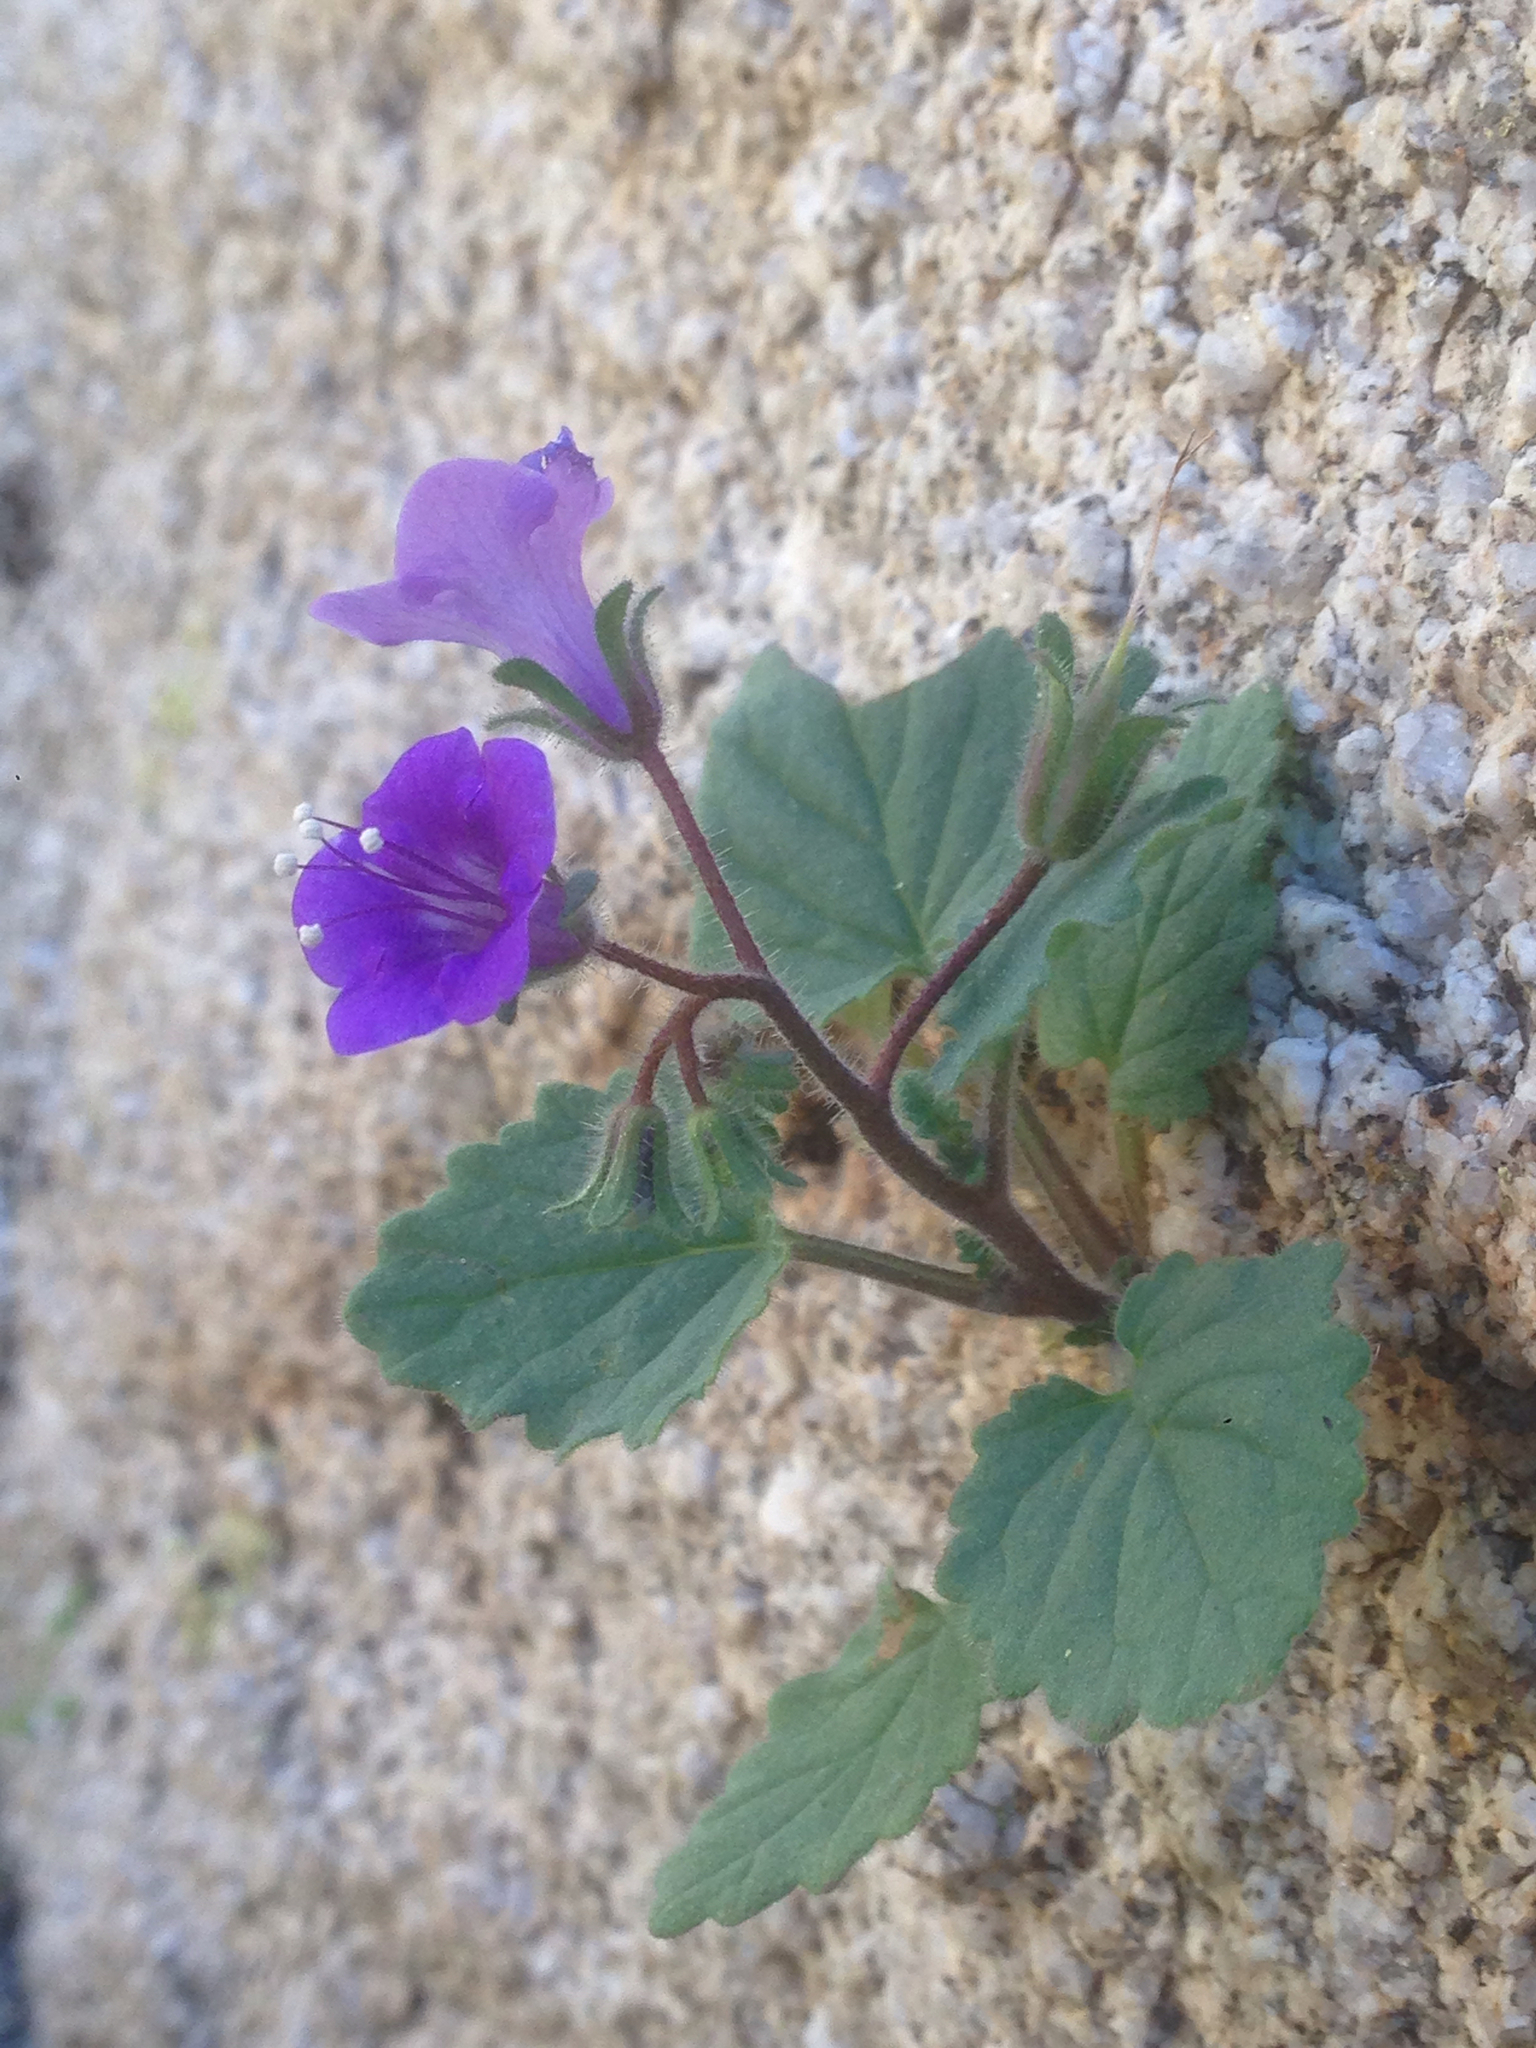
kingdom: Plantae
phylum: Tracheophyta
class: Magnoliopsida
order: Boraginales
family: Hydrophyllaceae
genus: Phacelia
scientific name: Phacelia minor
